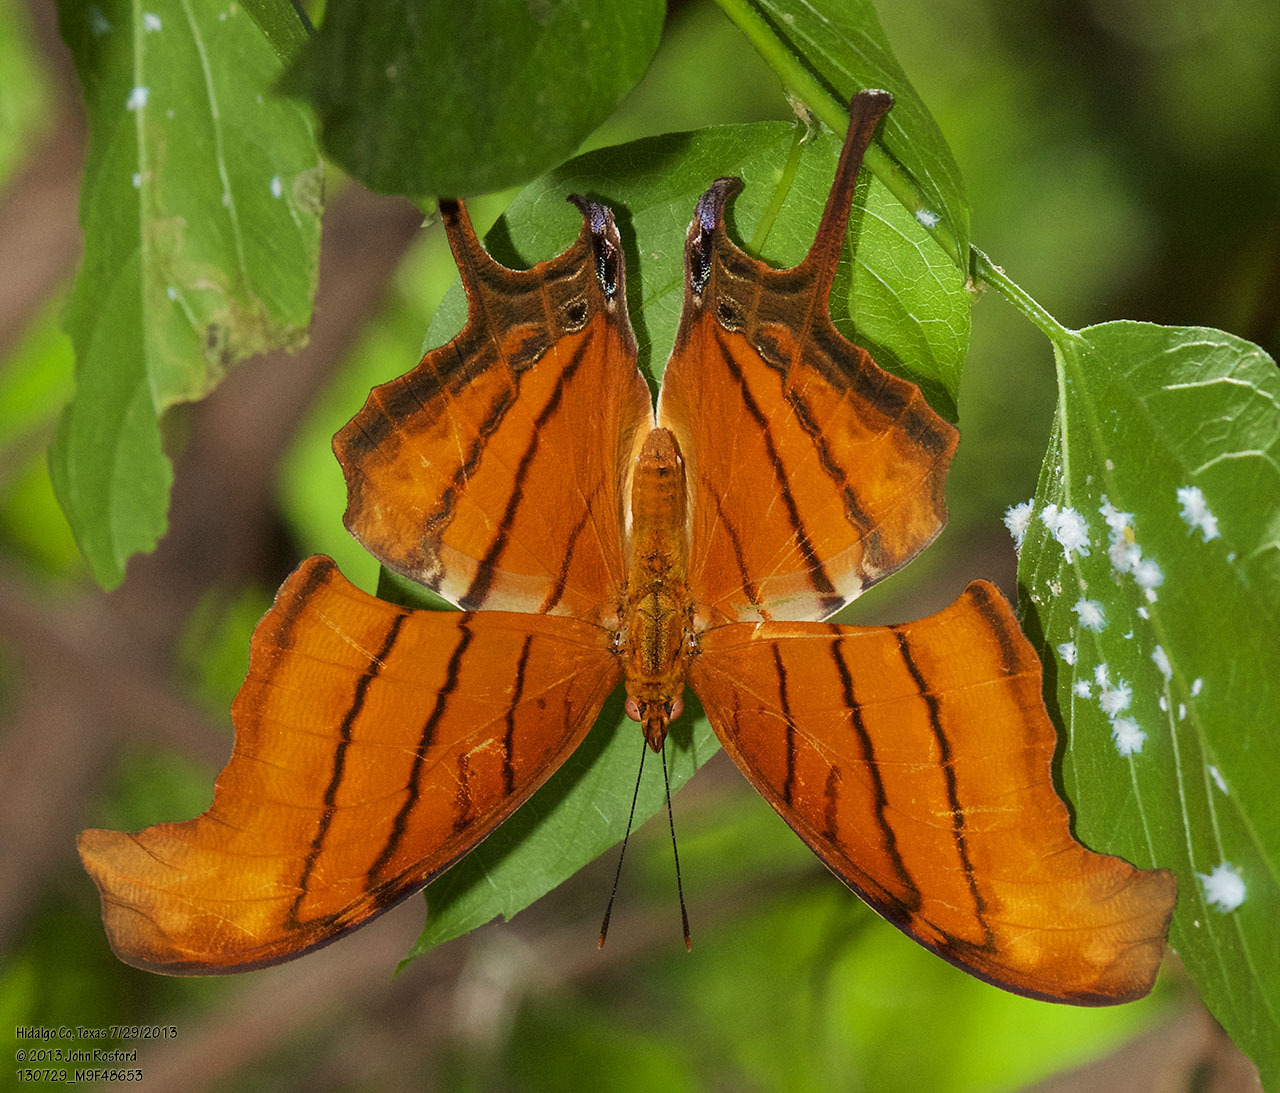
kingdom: Animalia
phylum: Arthropoda
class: Insecta
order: Lepidoptera
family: Nymphalidae
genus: Marpesia
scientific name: Marpesia petreus
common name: Red dagger wing
